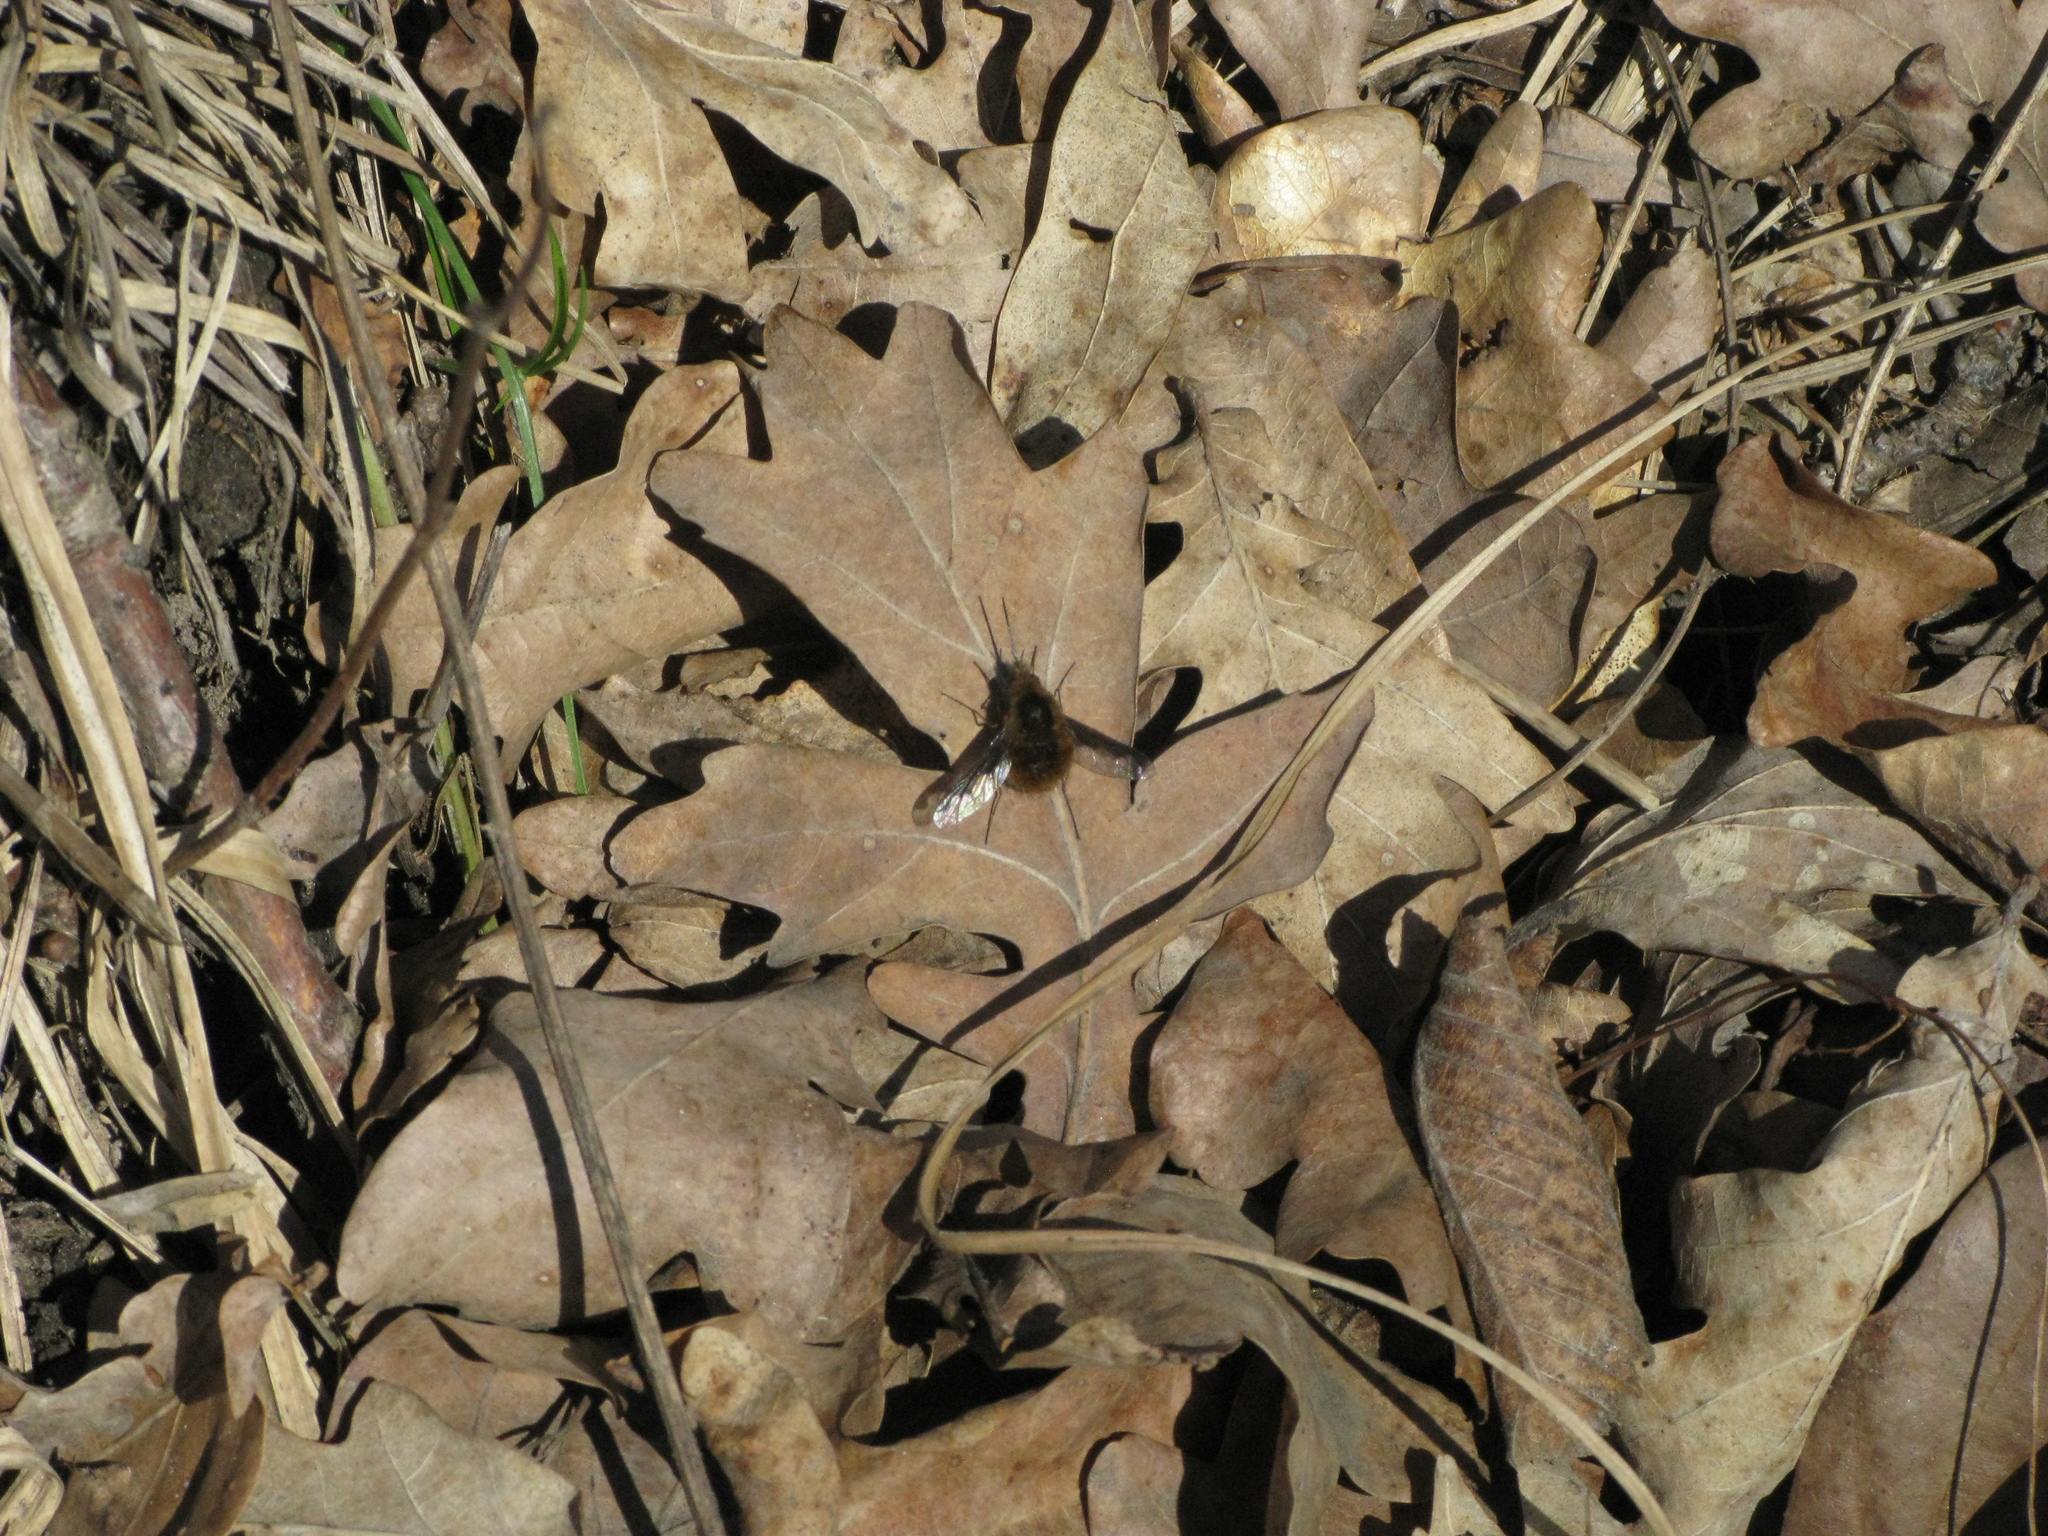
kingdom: Animalia
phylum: Arthropoda
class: Insecta
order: Diptera
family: Bombyliidae
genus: Bombylius
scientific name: Bombylius major
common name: Bee fly
